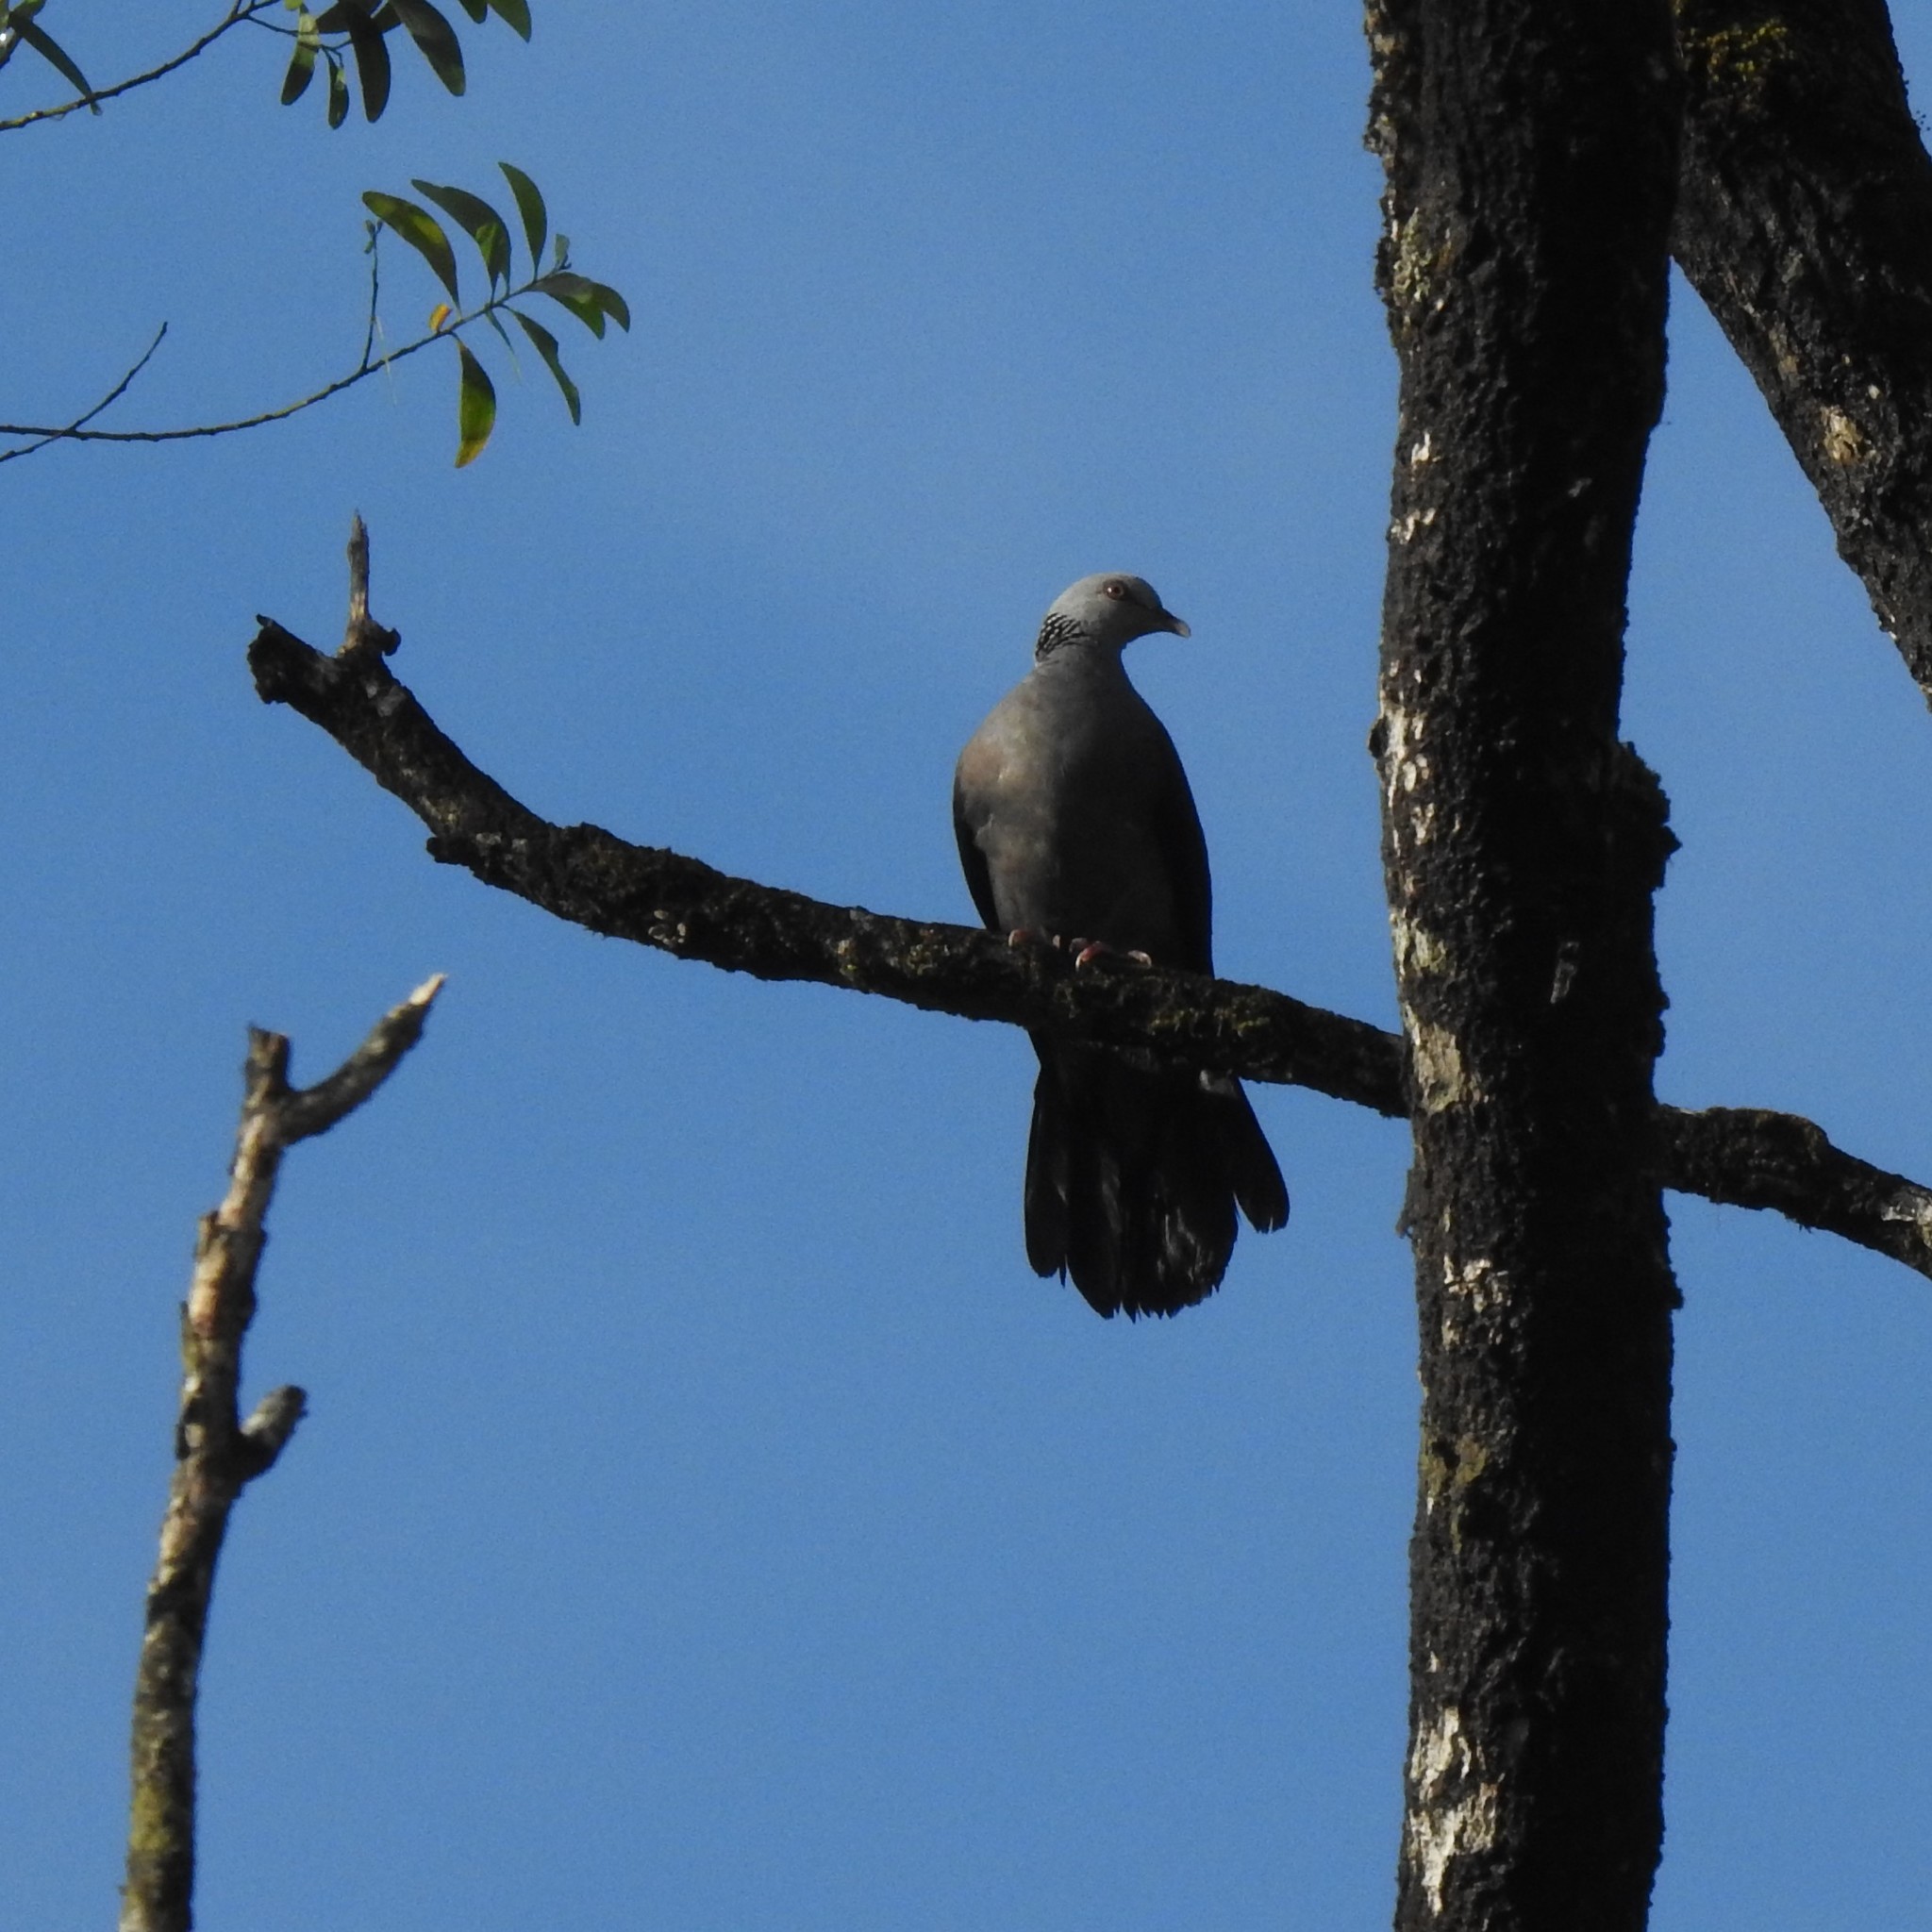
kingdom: Animalia
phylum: Chordata
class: Aves
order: Columbiformes
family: Columbidae
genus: Columba
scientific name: Columba elphinstonii
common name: Nilgiri wood pigeon
